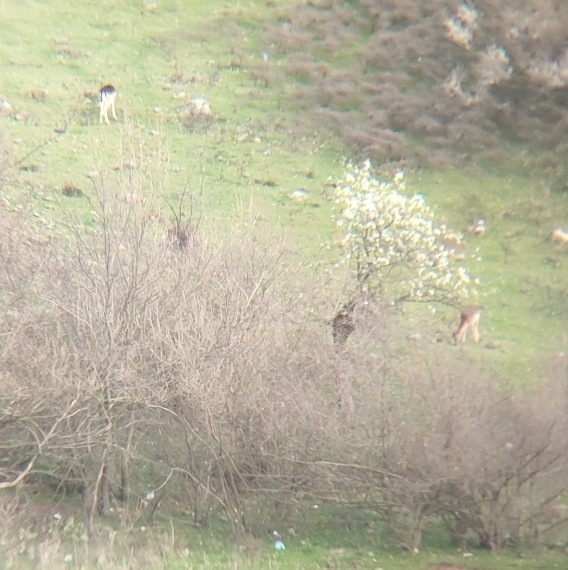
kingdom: Animalia
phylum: Chordata
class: Mammalia
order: Artiodactyla
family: Cervidae
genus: Dama
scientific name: Dama dama
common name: Fallow deer
